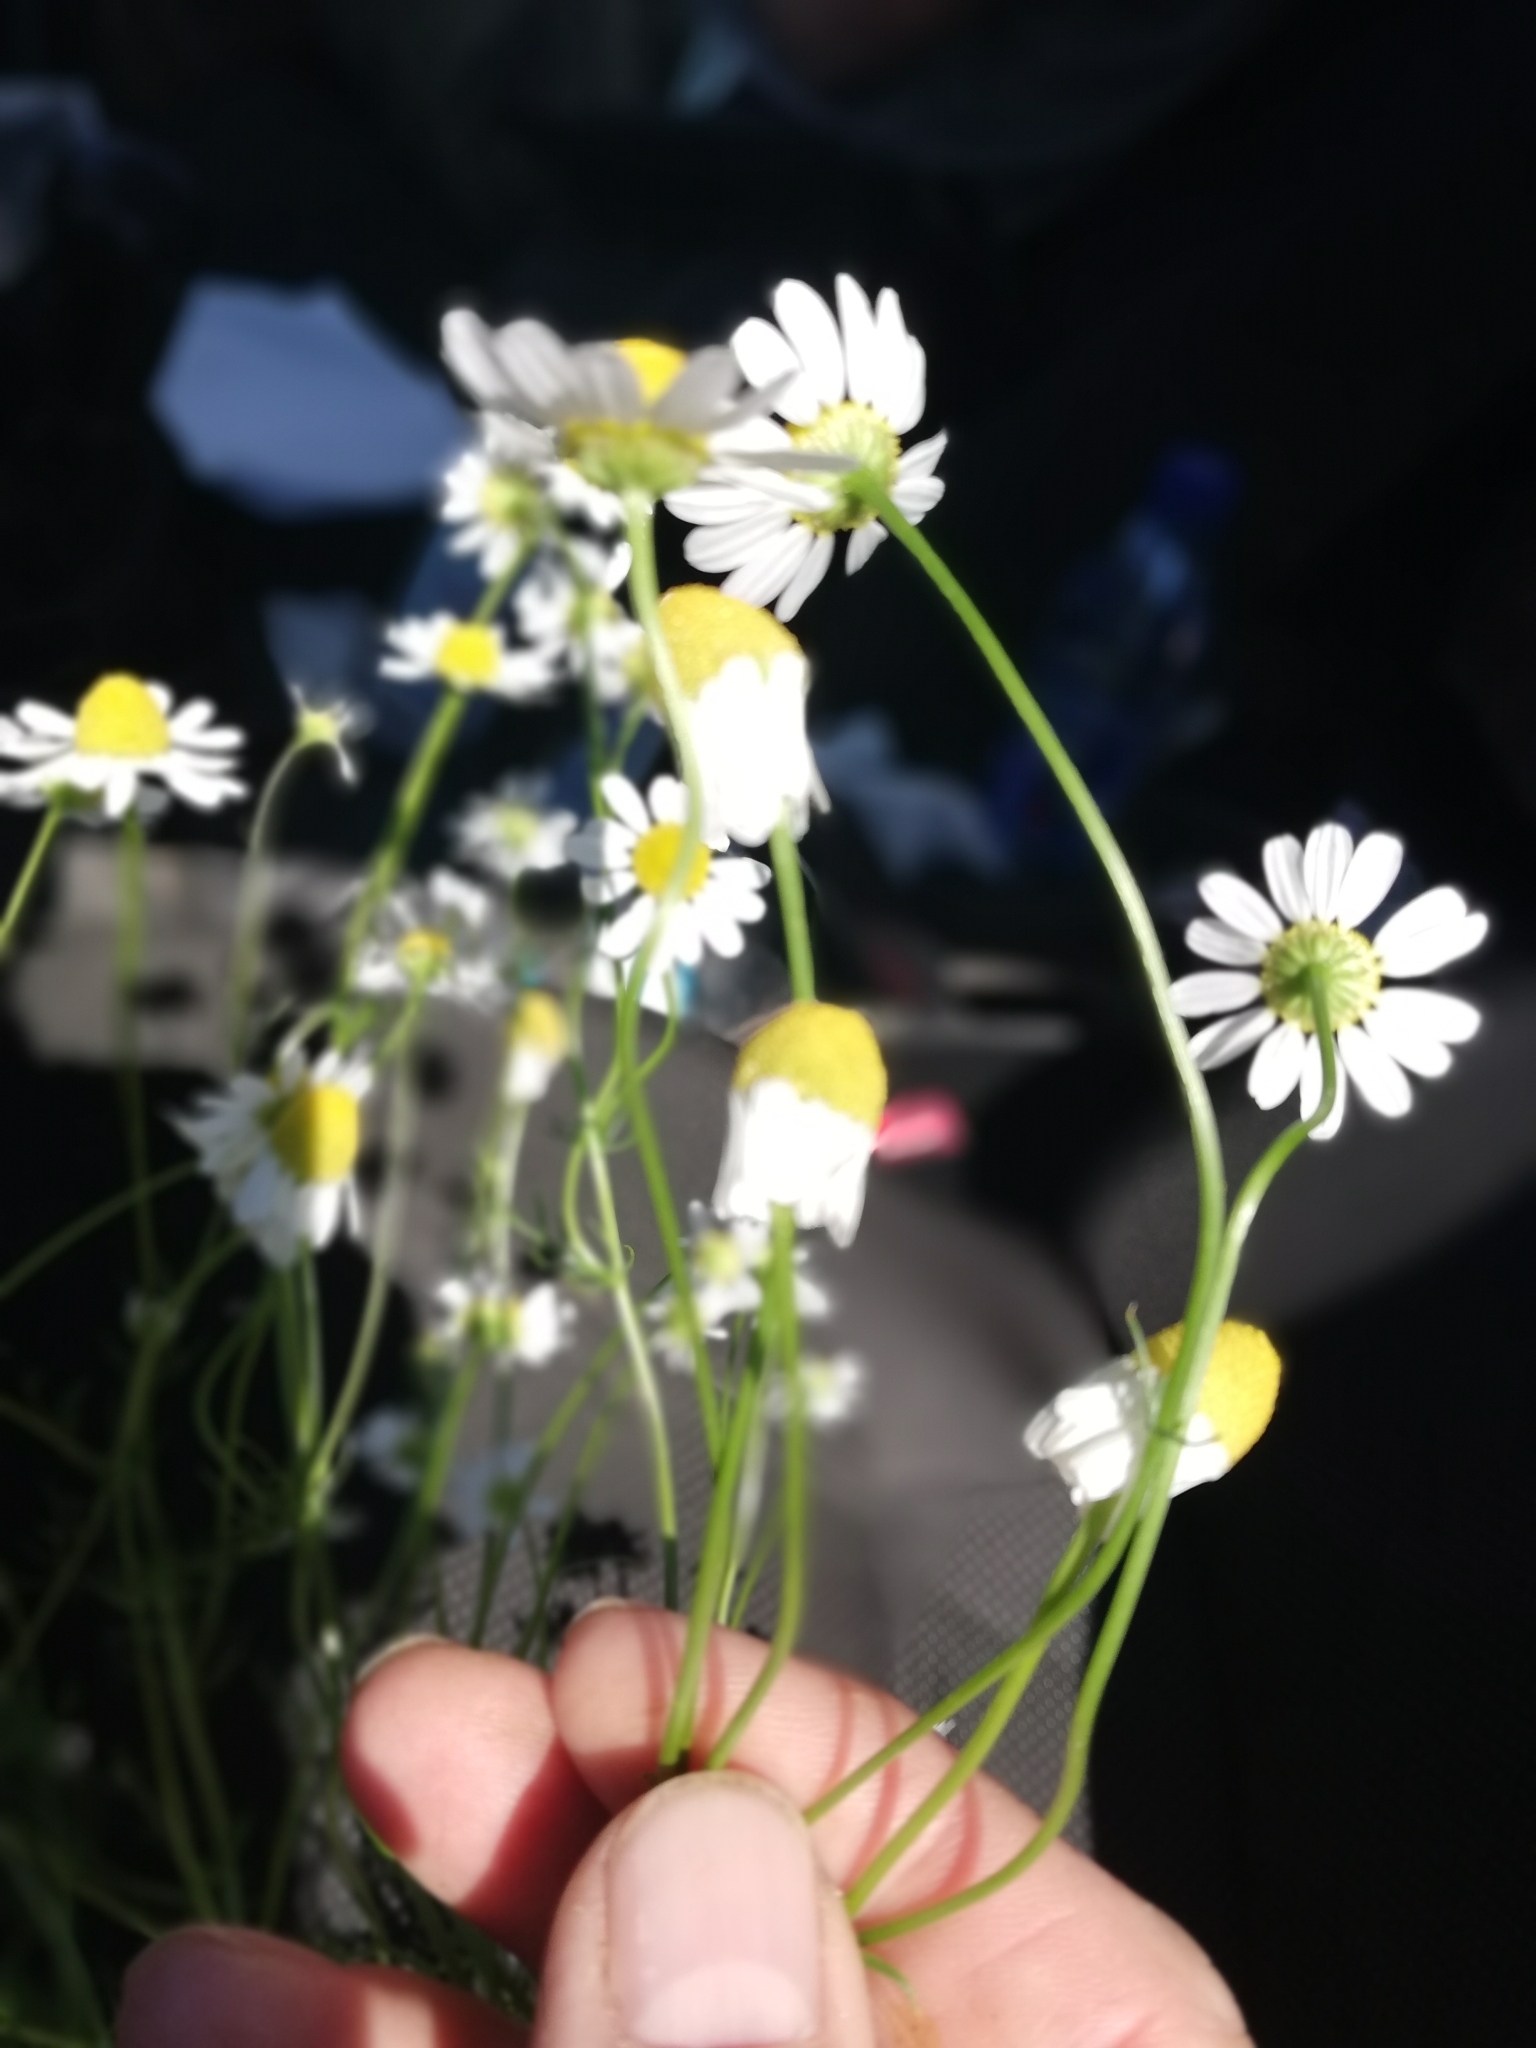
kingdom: Plantae
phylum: Tracheophyta
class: Magnoliopsida
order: Asterales
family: Asteraceae
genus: Matricaria
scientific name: Matricaria chamomilla
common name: Scented mayweed
